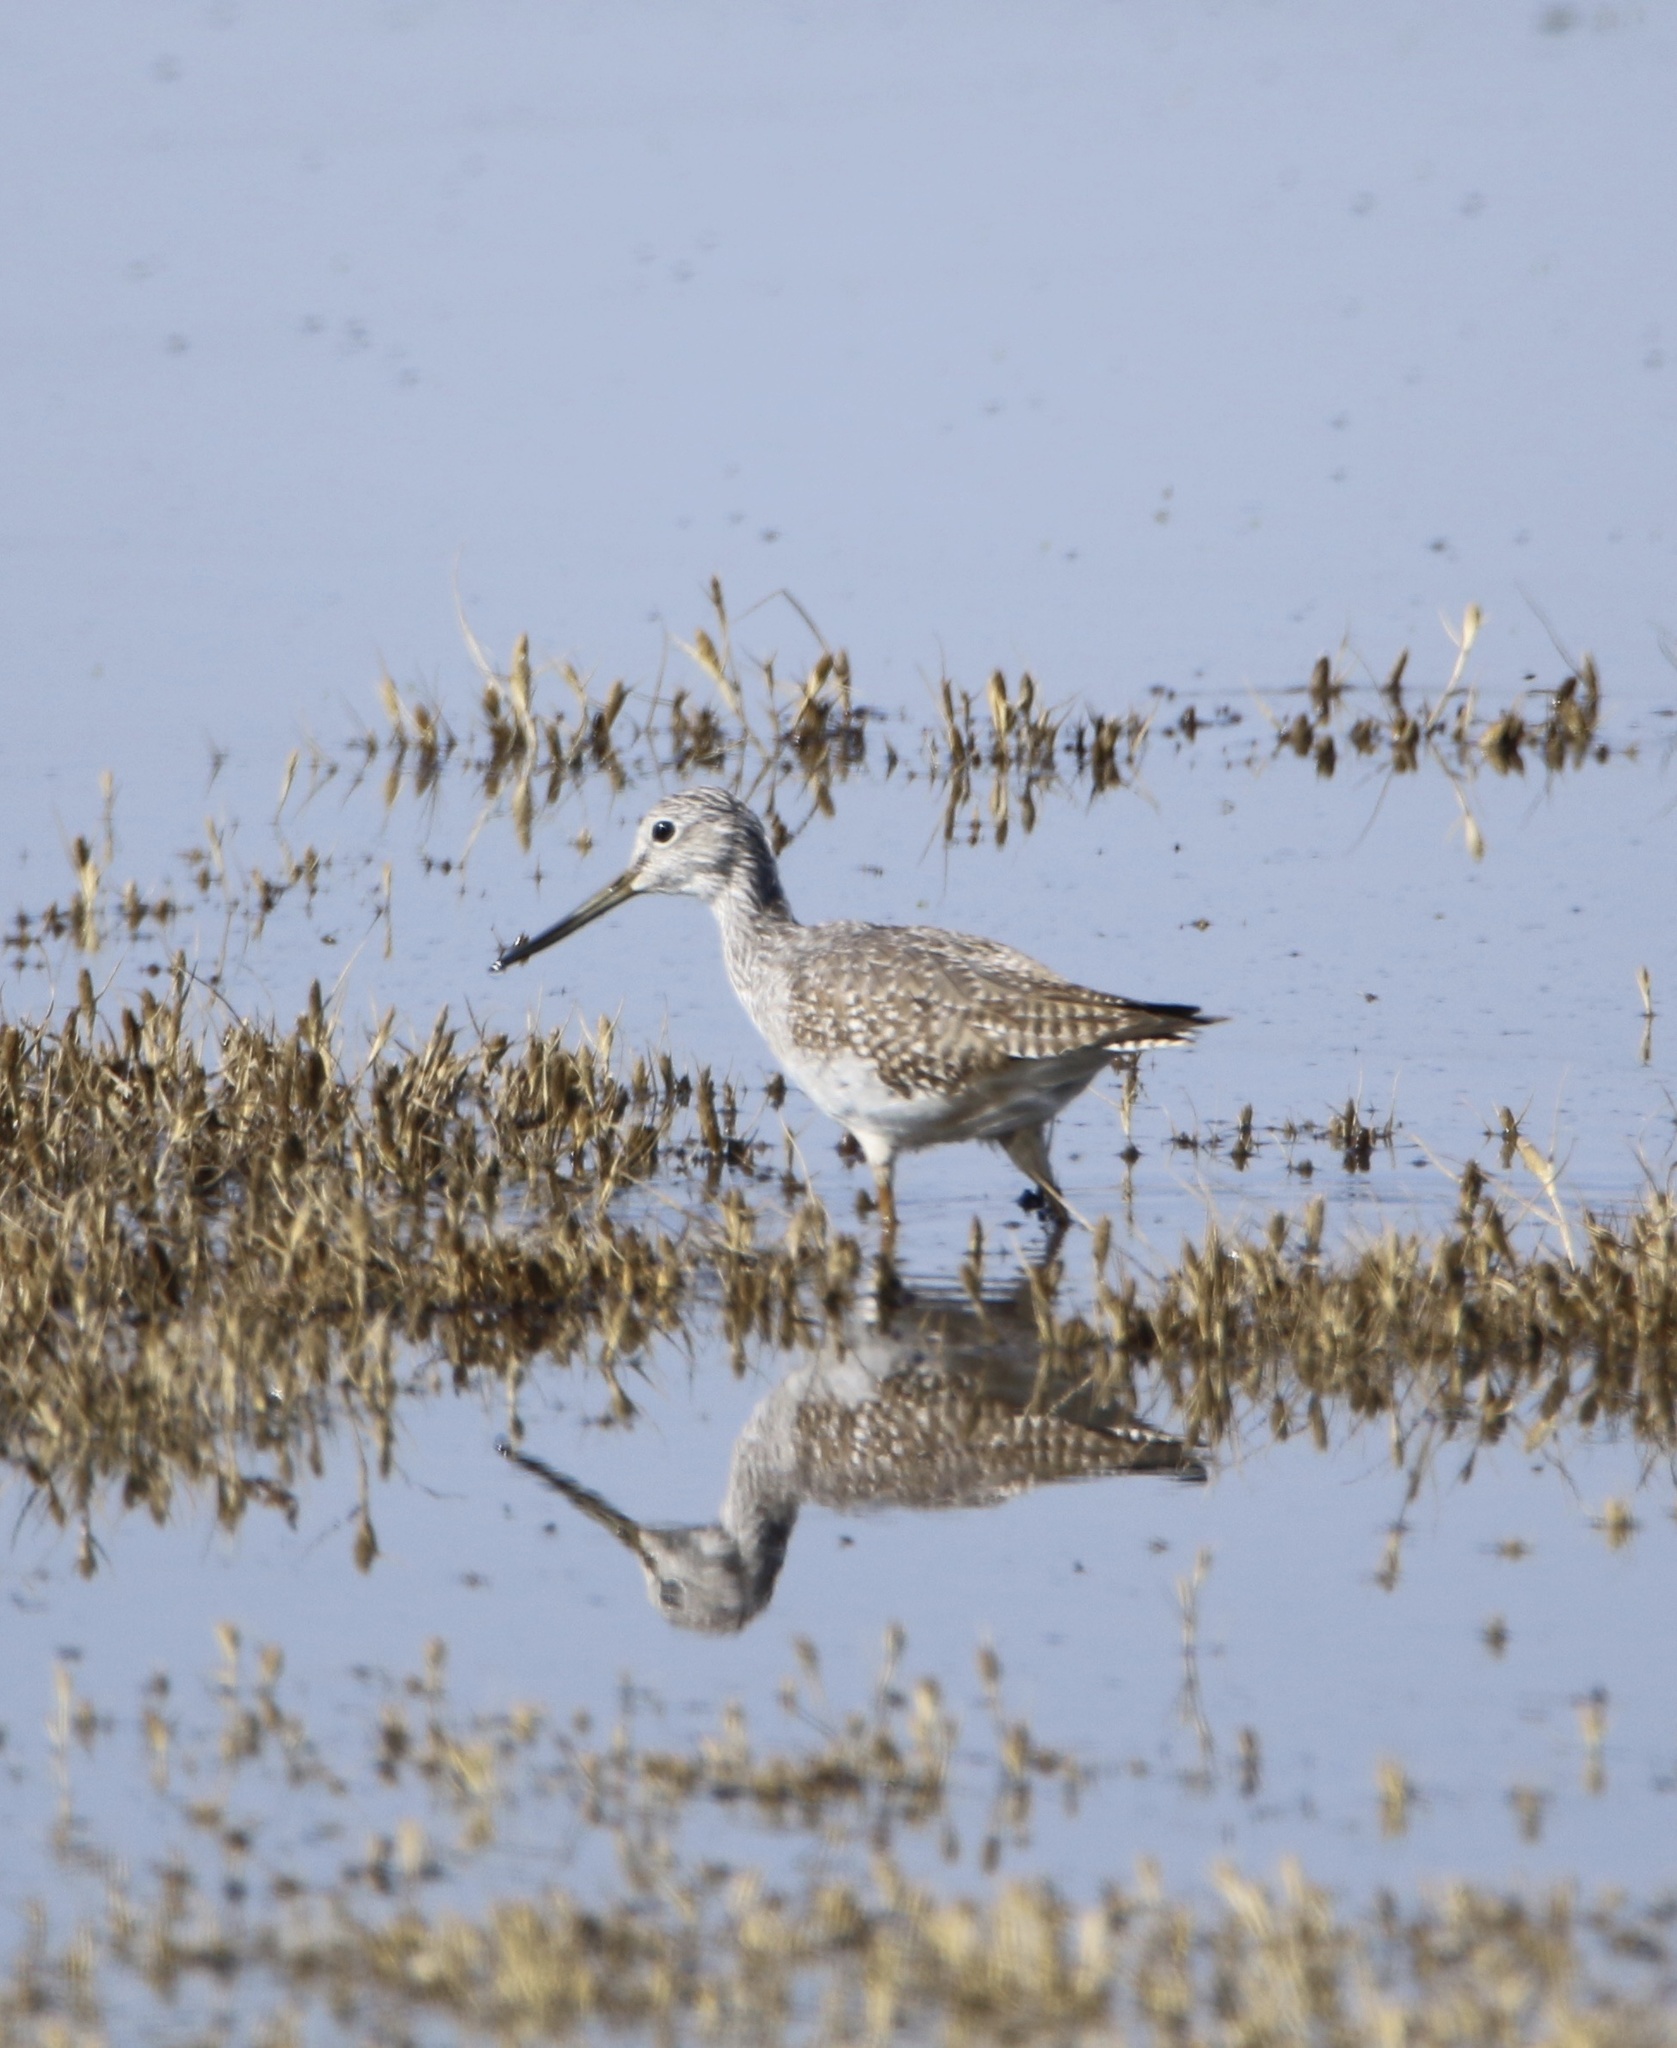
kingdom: Animalia
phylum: Chordata
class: Aves
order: Charadriiformes
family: Scolopacidae
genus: Tringa
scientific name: Tringa melanoleuca
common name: Greater yellowlegs
